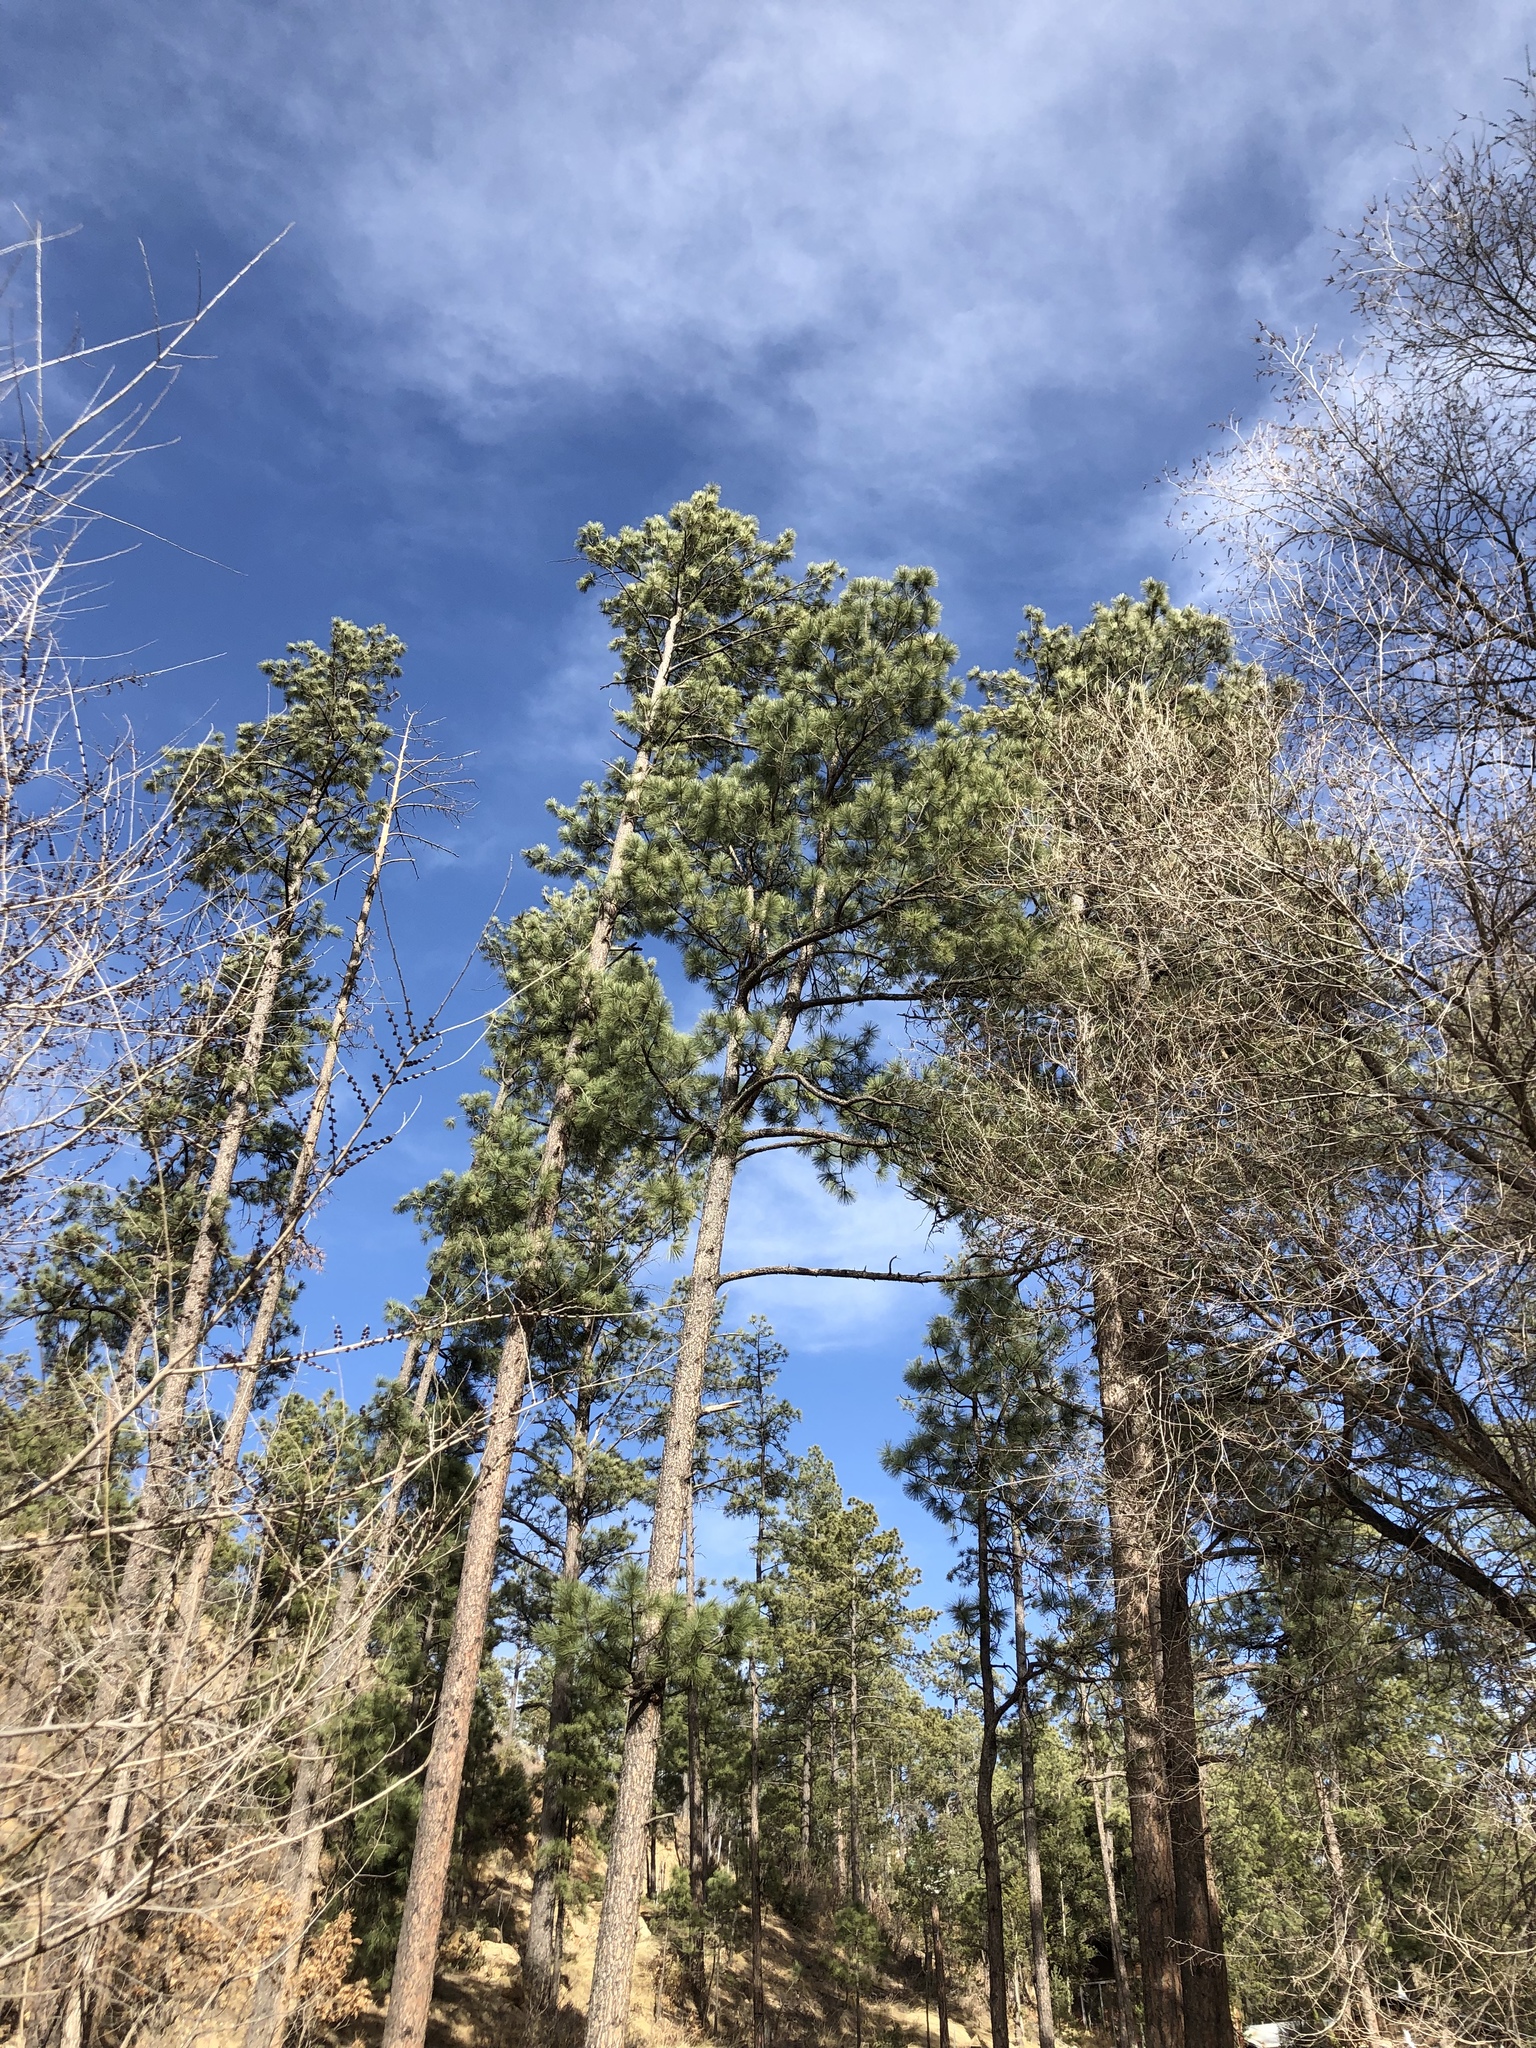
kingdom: Plantae
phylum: Tracheophyta
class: Pinopsida
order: Pinales
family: Pinaceae
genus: Pinus
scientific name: Pinus ponderosa
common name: Western yellow-pine
